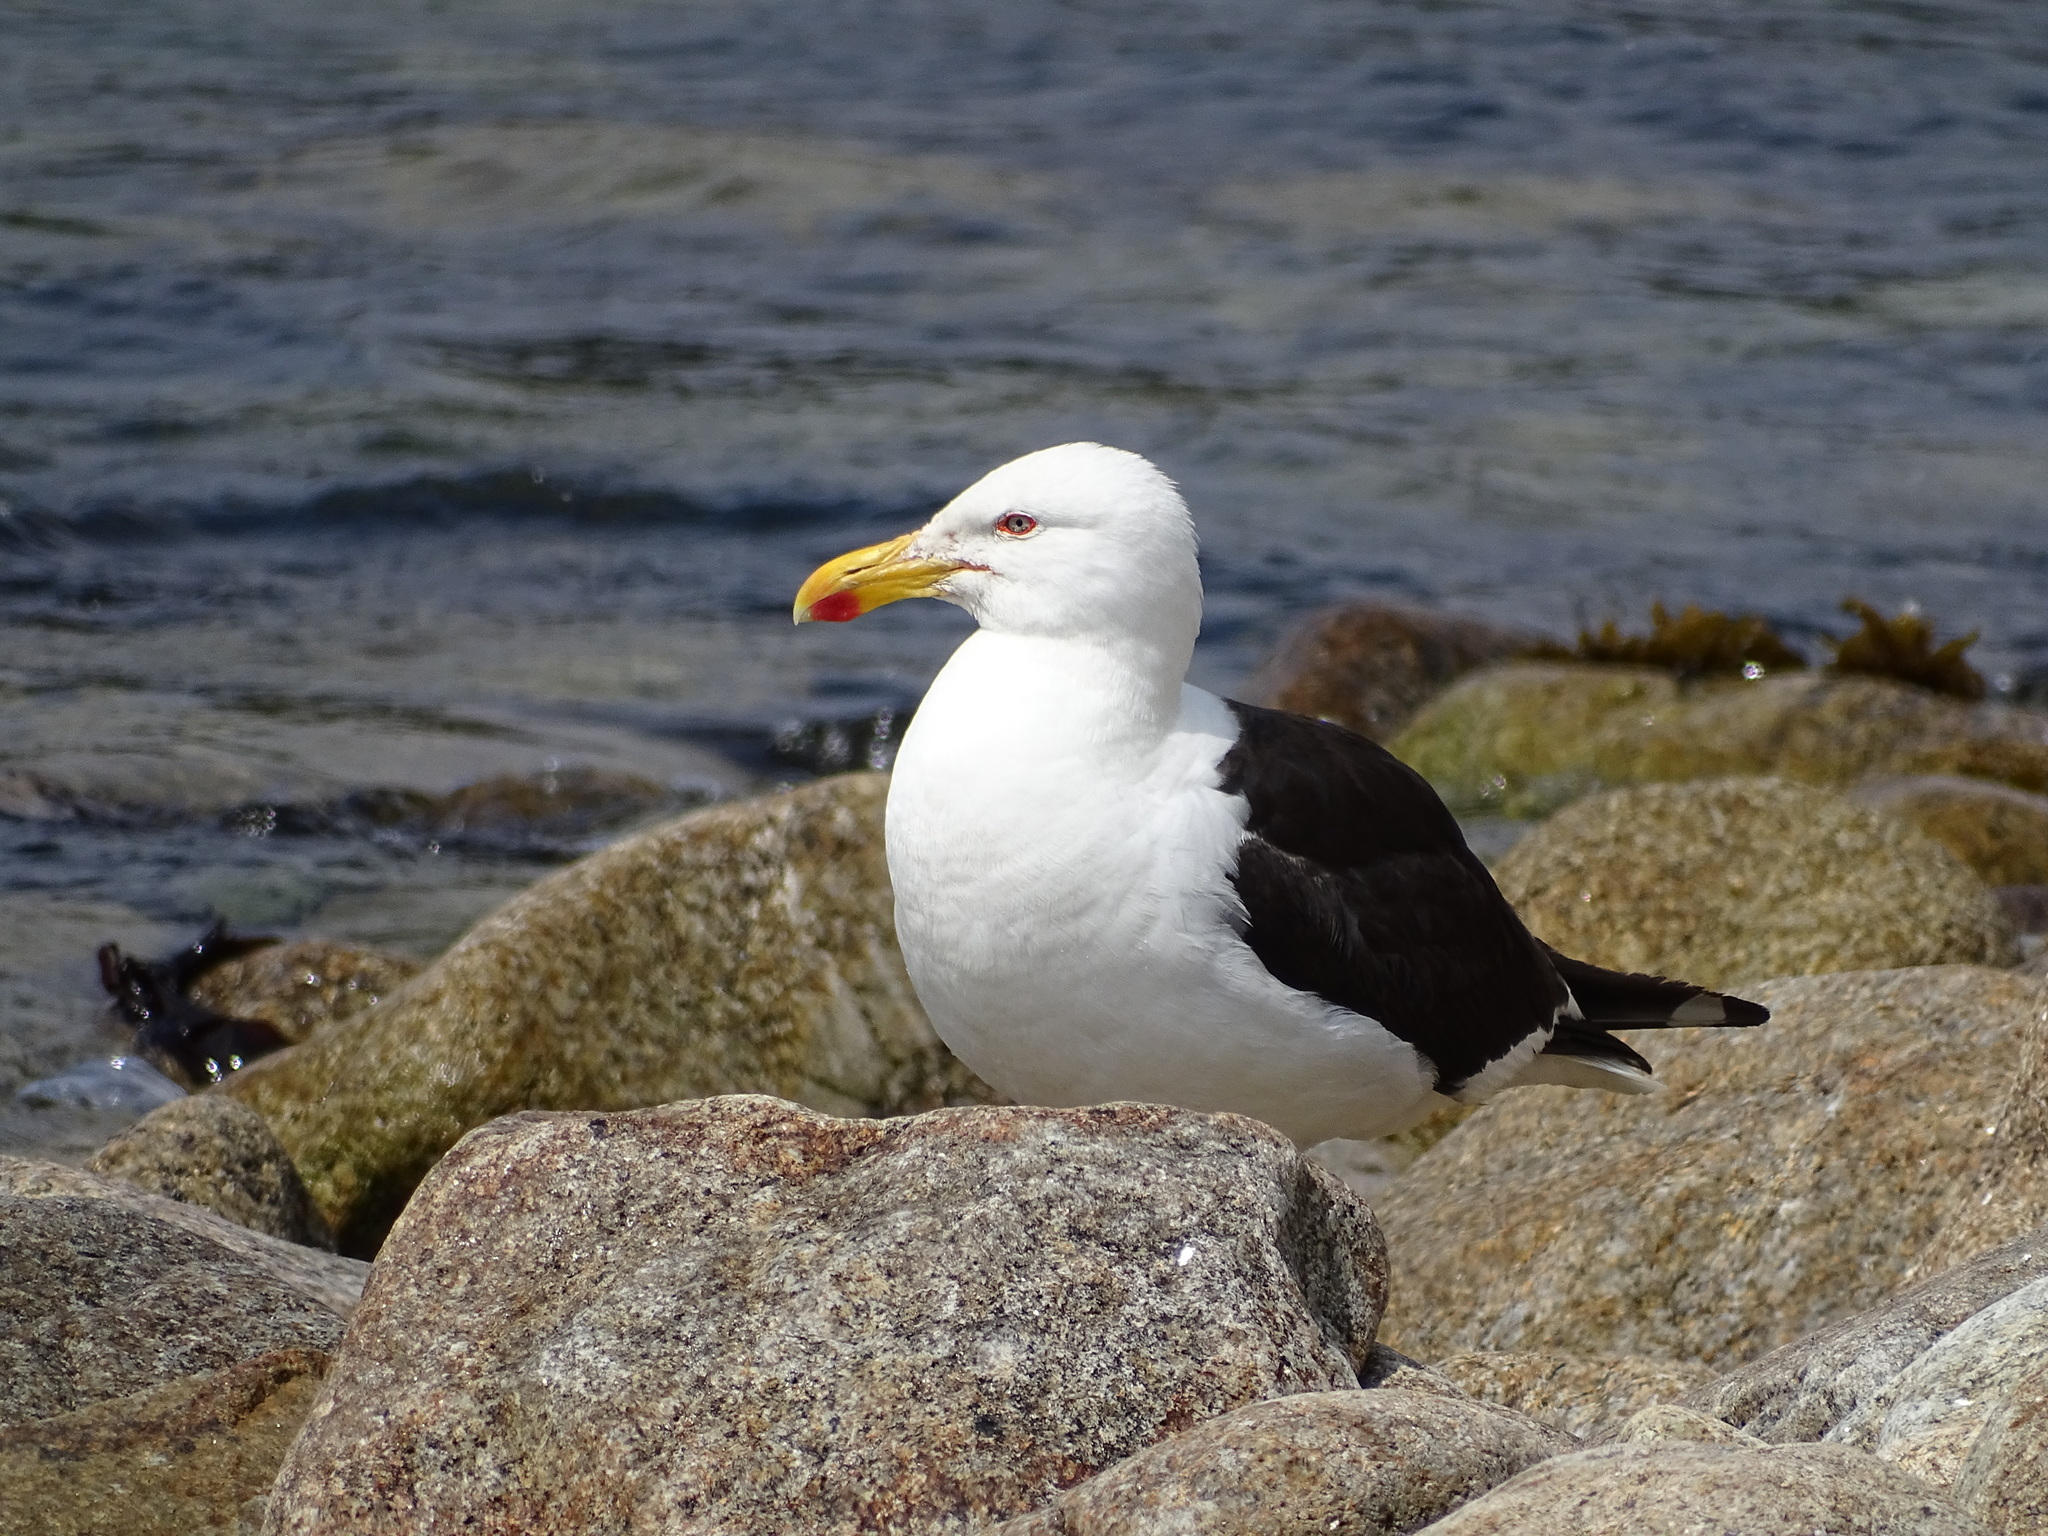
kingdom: Animalia
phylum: Chordata
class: Aves
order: Charadriiformes
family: Laridae
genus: Larus
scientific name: Larus dominicanus
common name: Kelp gull
